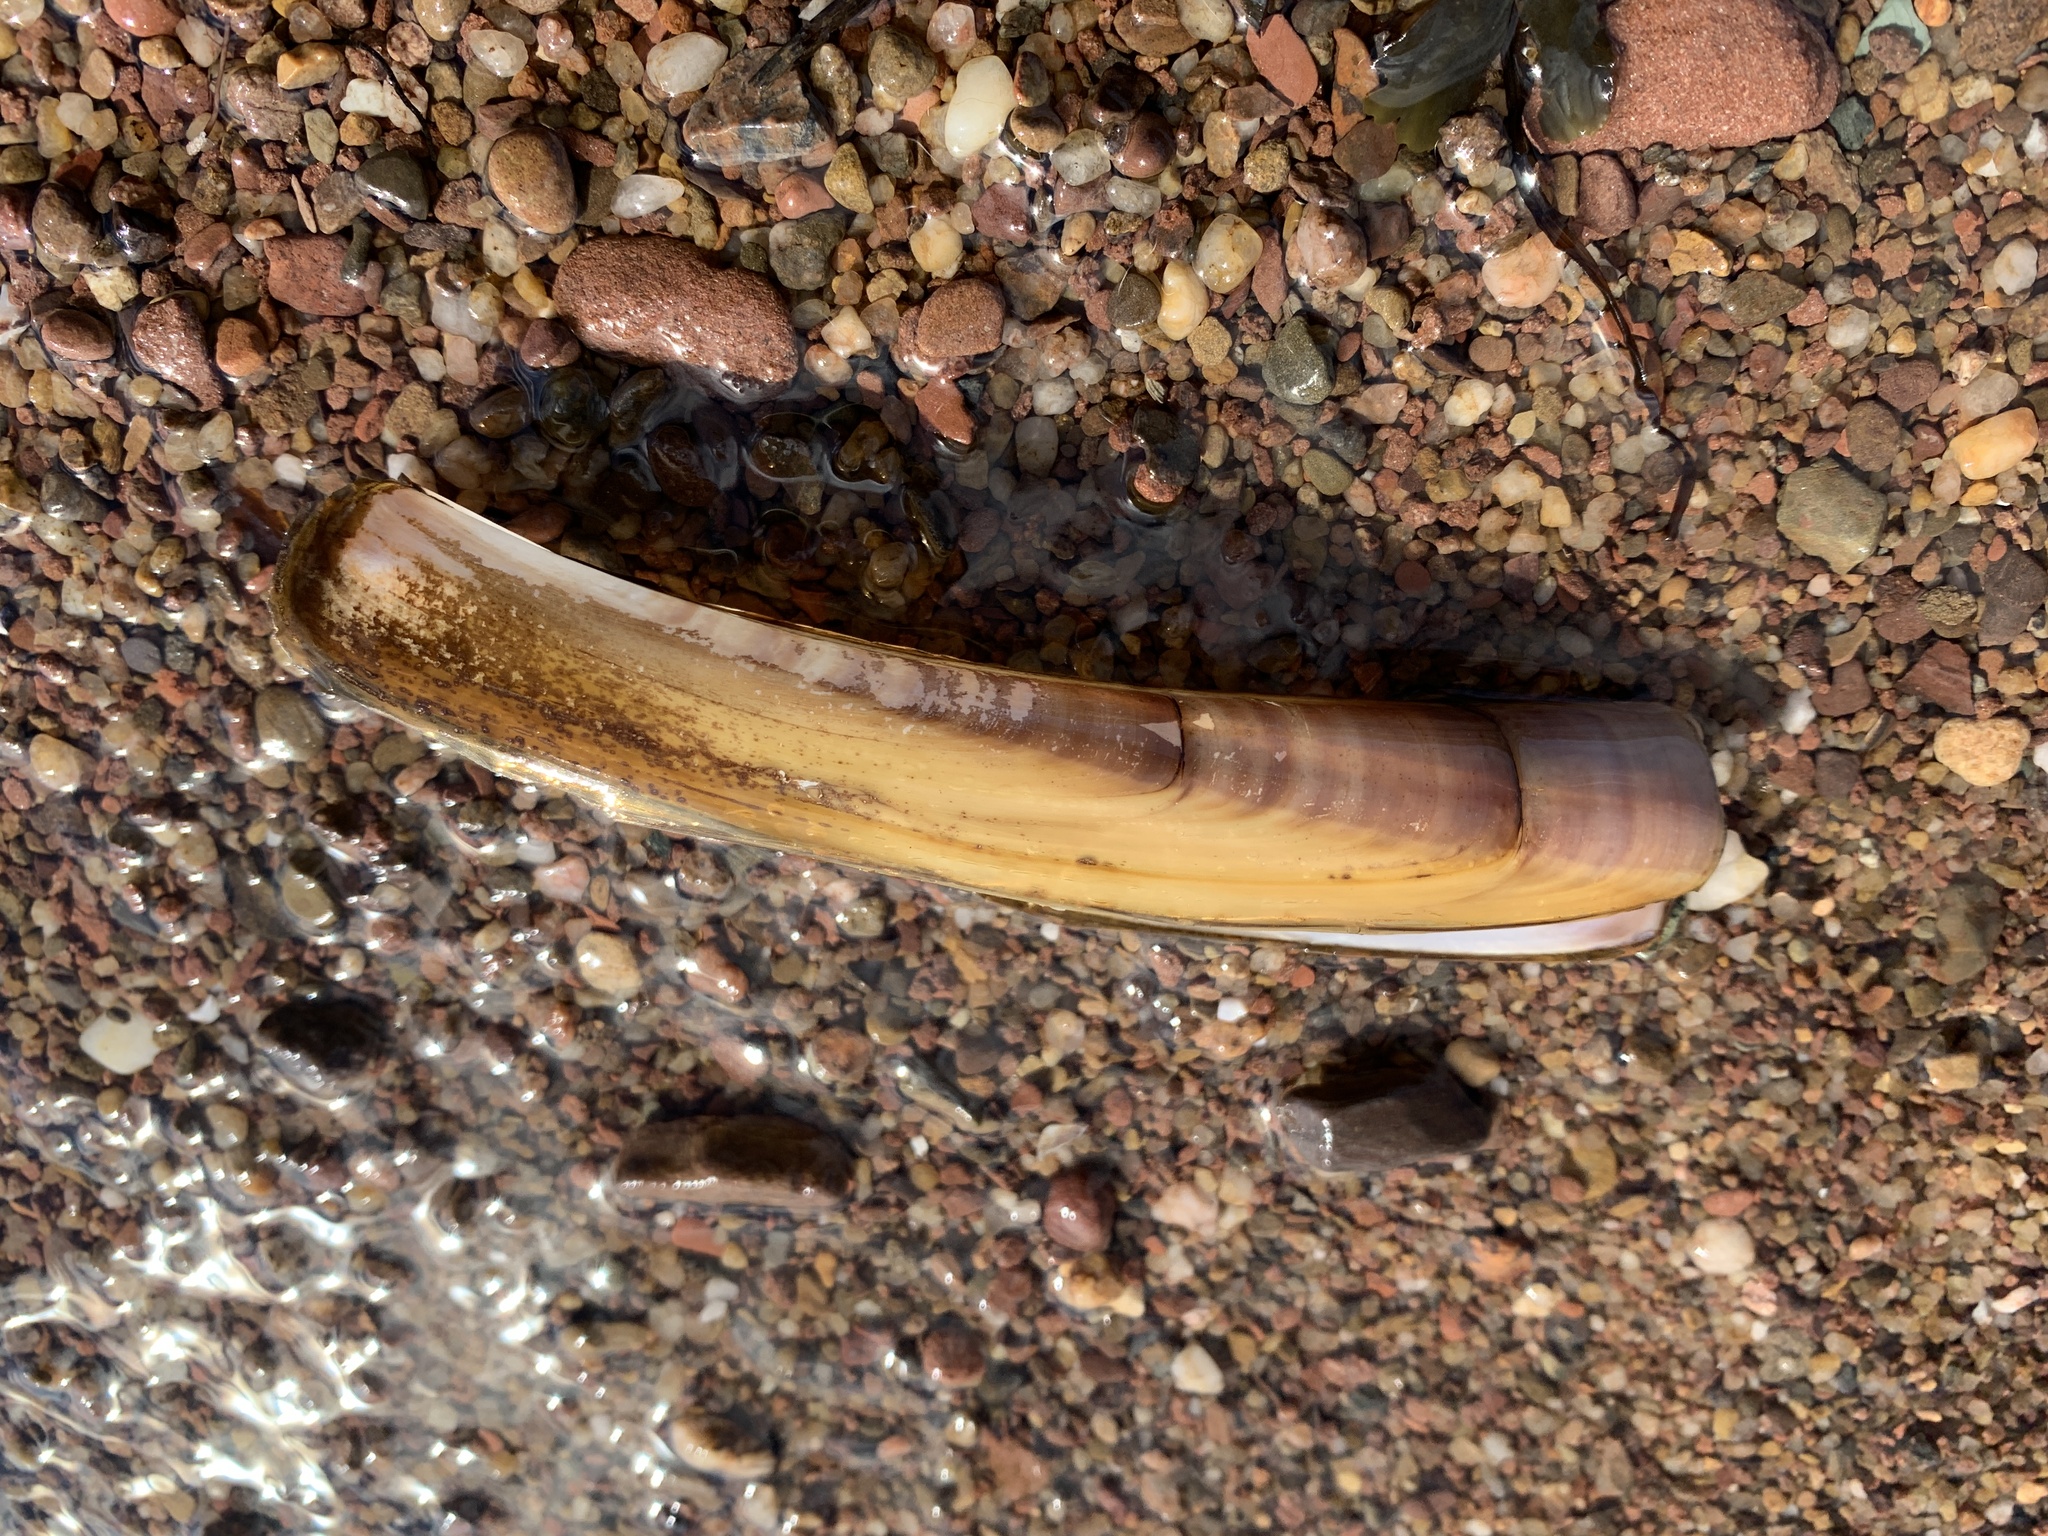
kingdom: Animalia
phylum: Mollusca
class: Bivalvia
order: Adapedonta
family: Pharidae
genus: Ensis
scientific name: Ensis leei
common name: American jack knife clam
